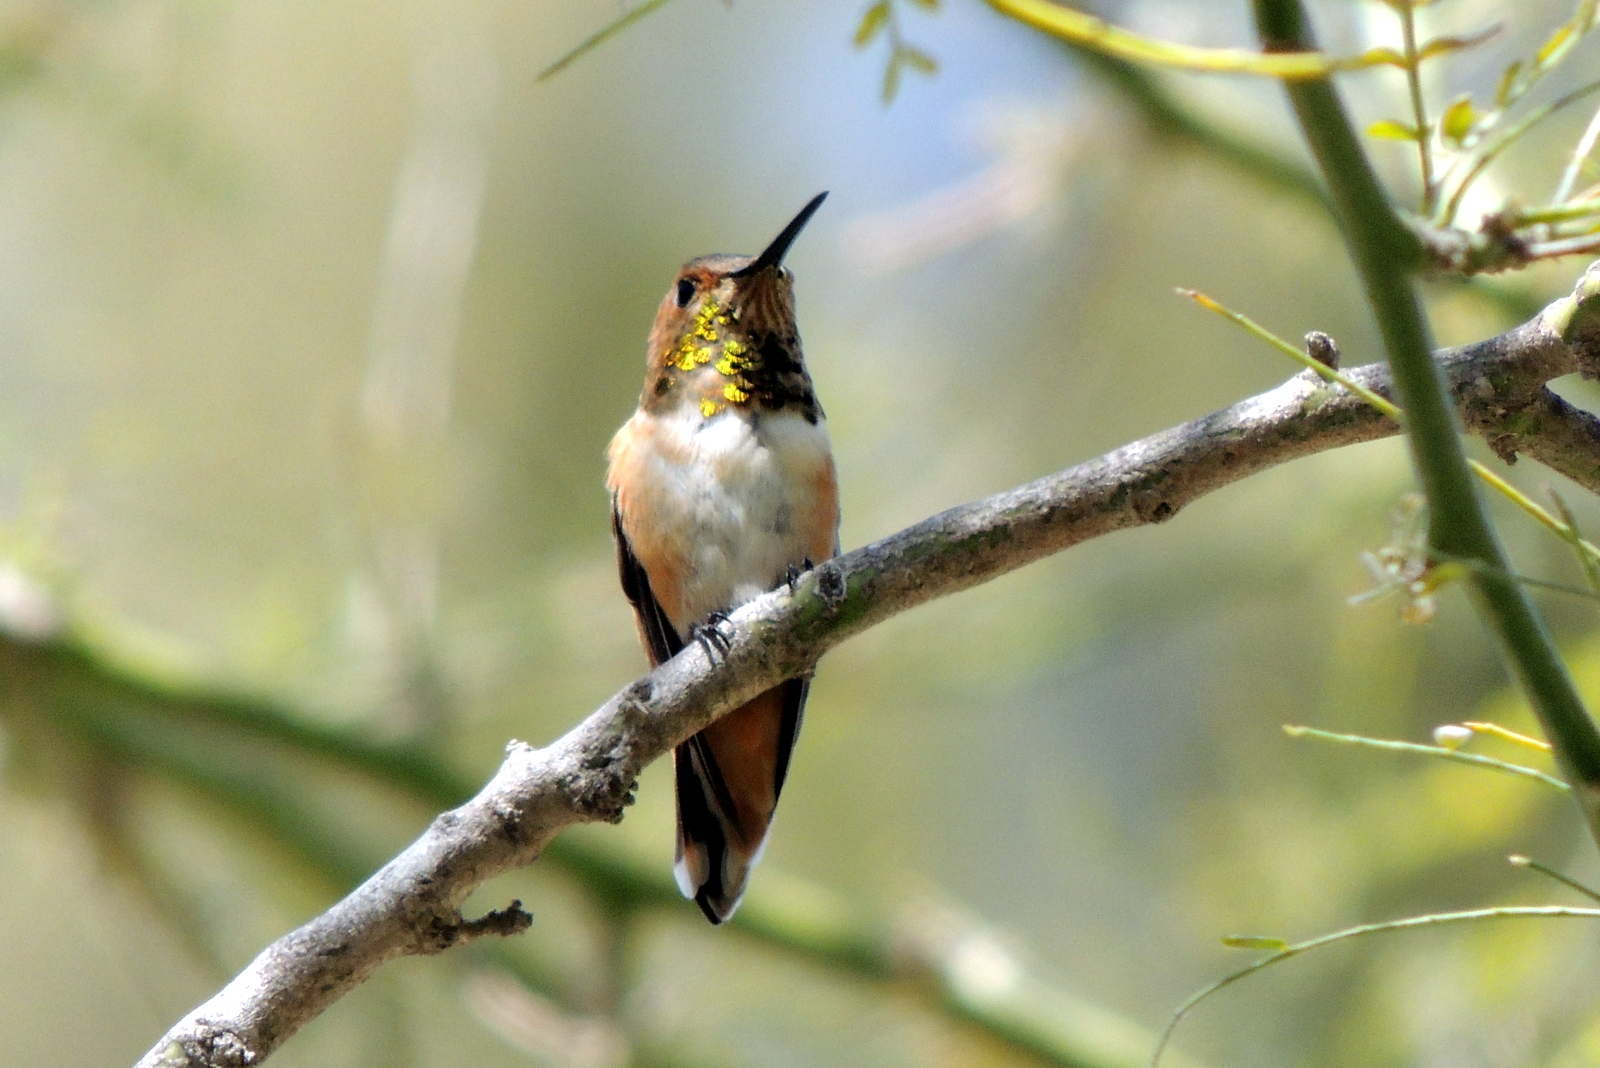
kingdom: Animalia
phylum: Chordata
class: Aves
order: Apodiformes
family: Trochilidae
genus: Selasphorus
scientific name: Selasphorus sasin
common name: Allen's hummingbird
